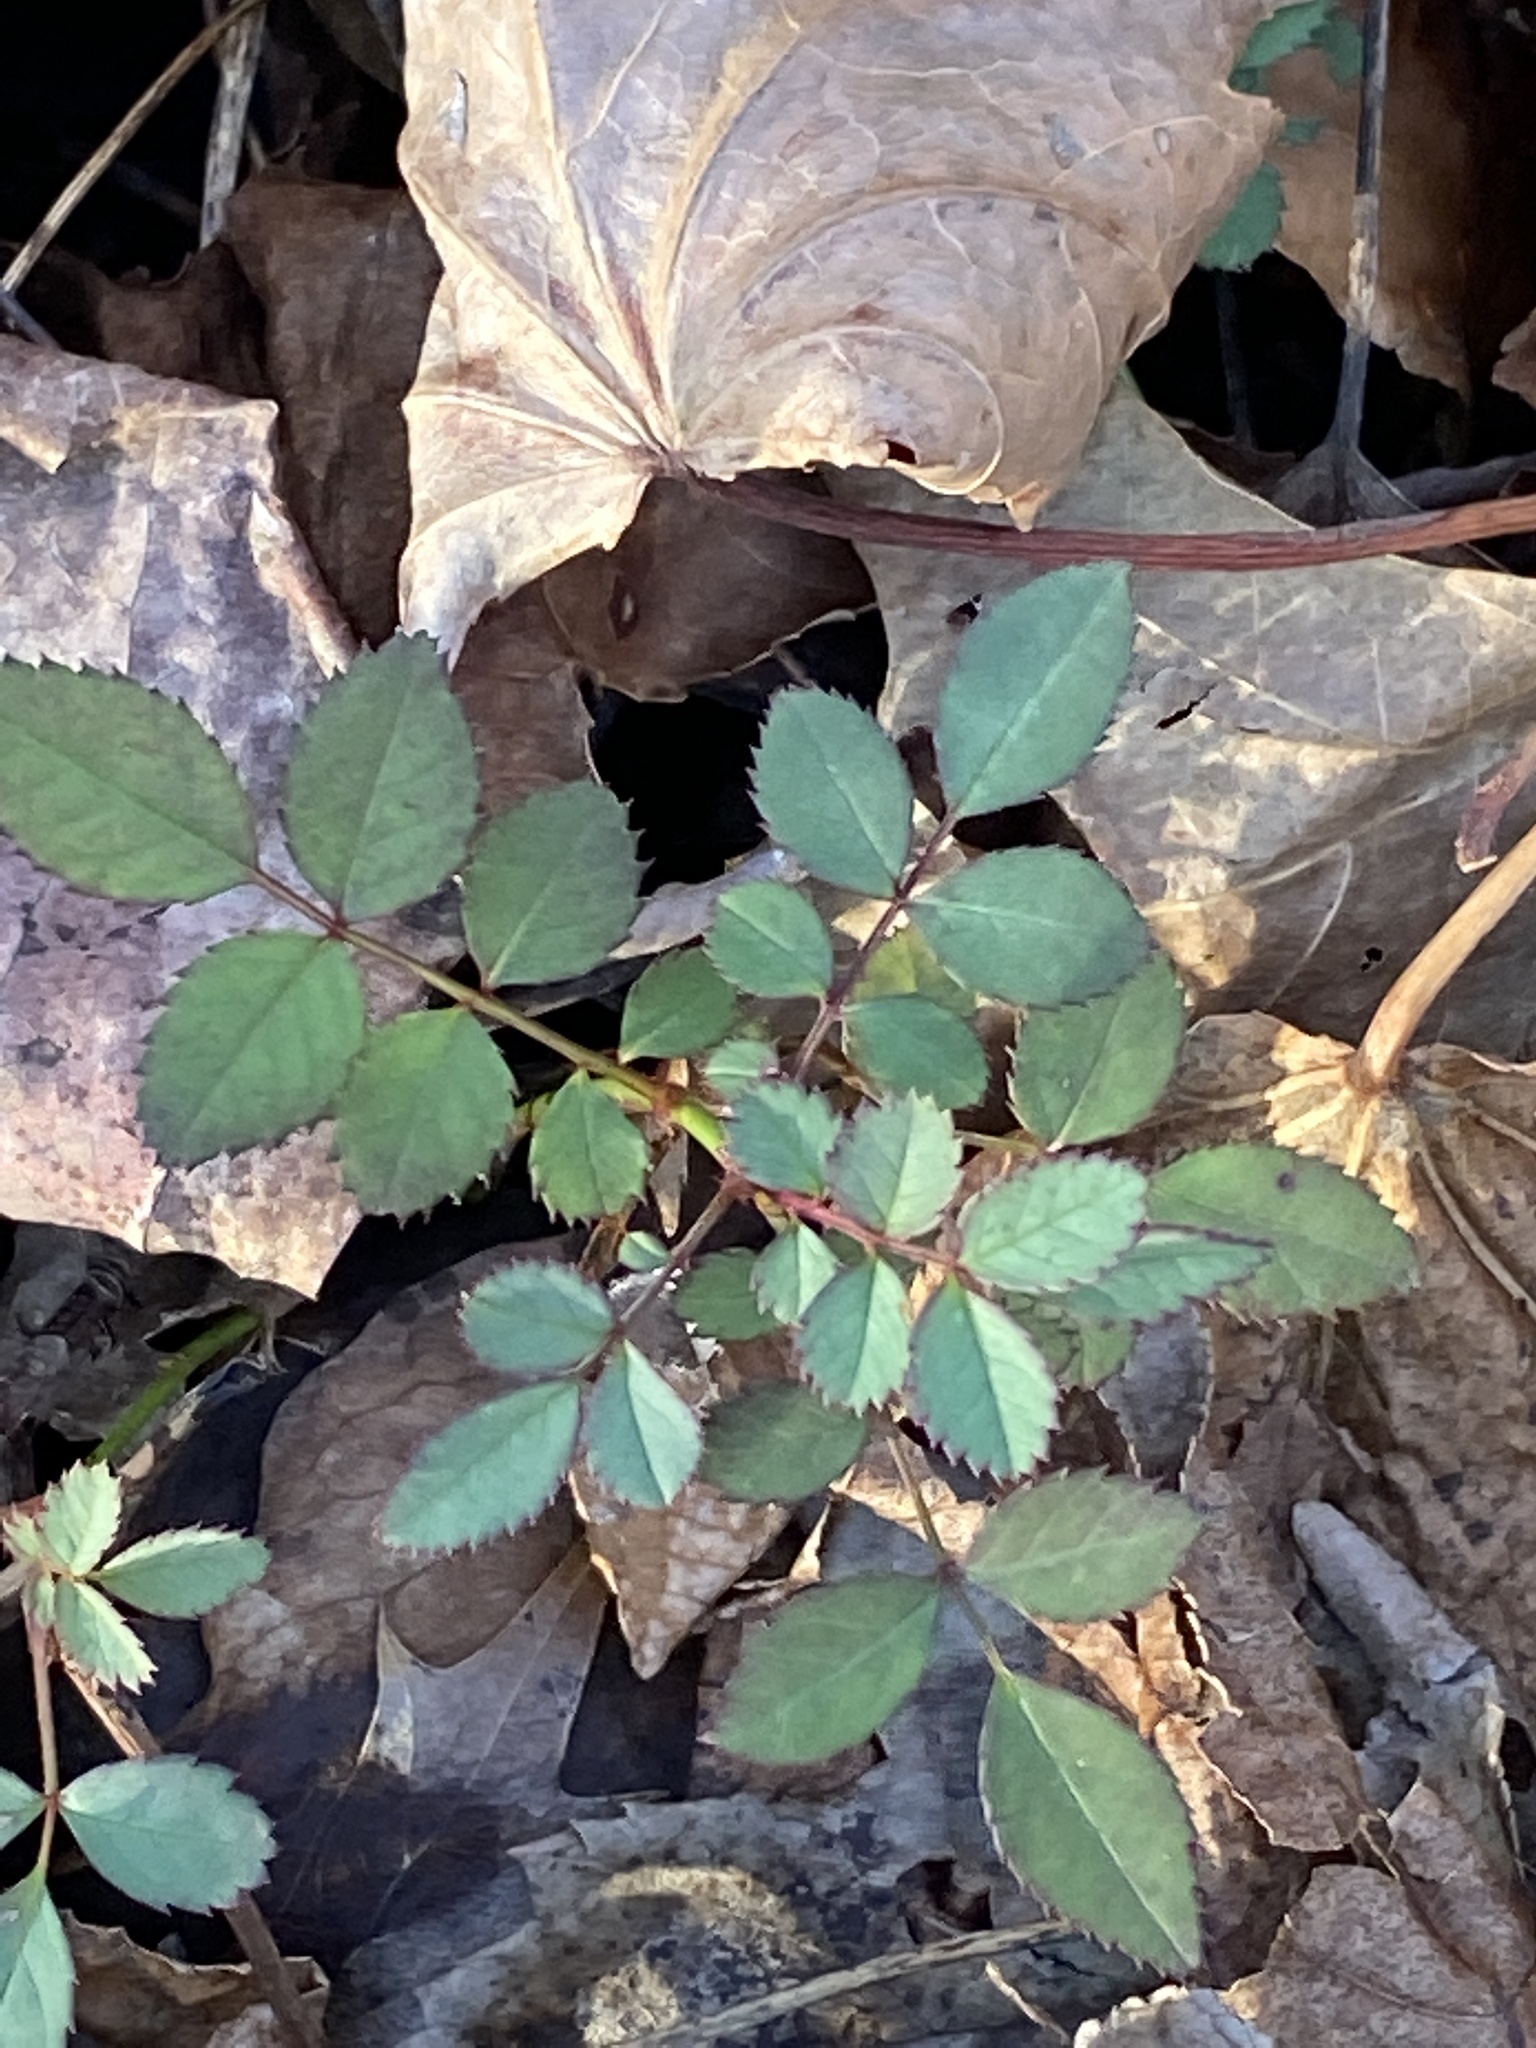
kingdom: Plantae
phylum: Tracheophyta
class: Magnoliopsida
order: Rosales
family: Rosaceae
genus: Rosa
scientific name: Rosa multiflora
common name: Multiflora rose
